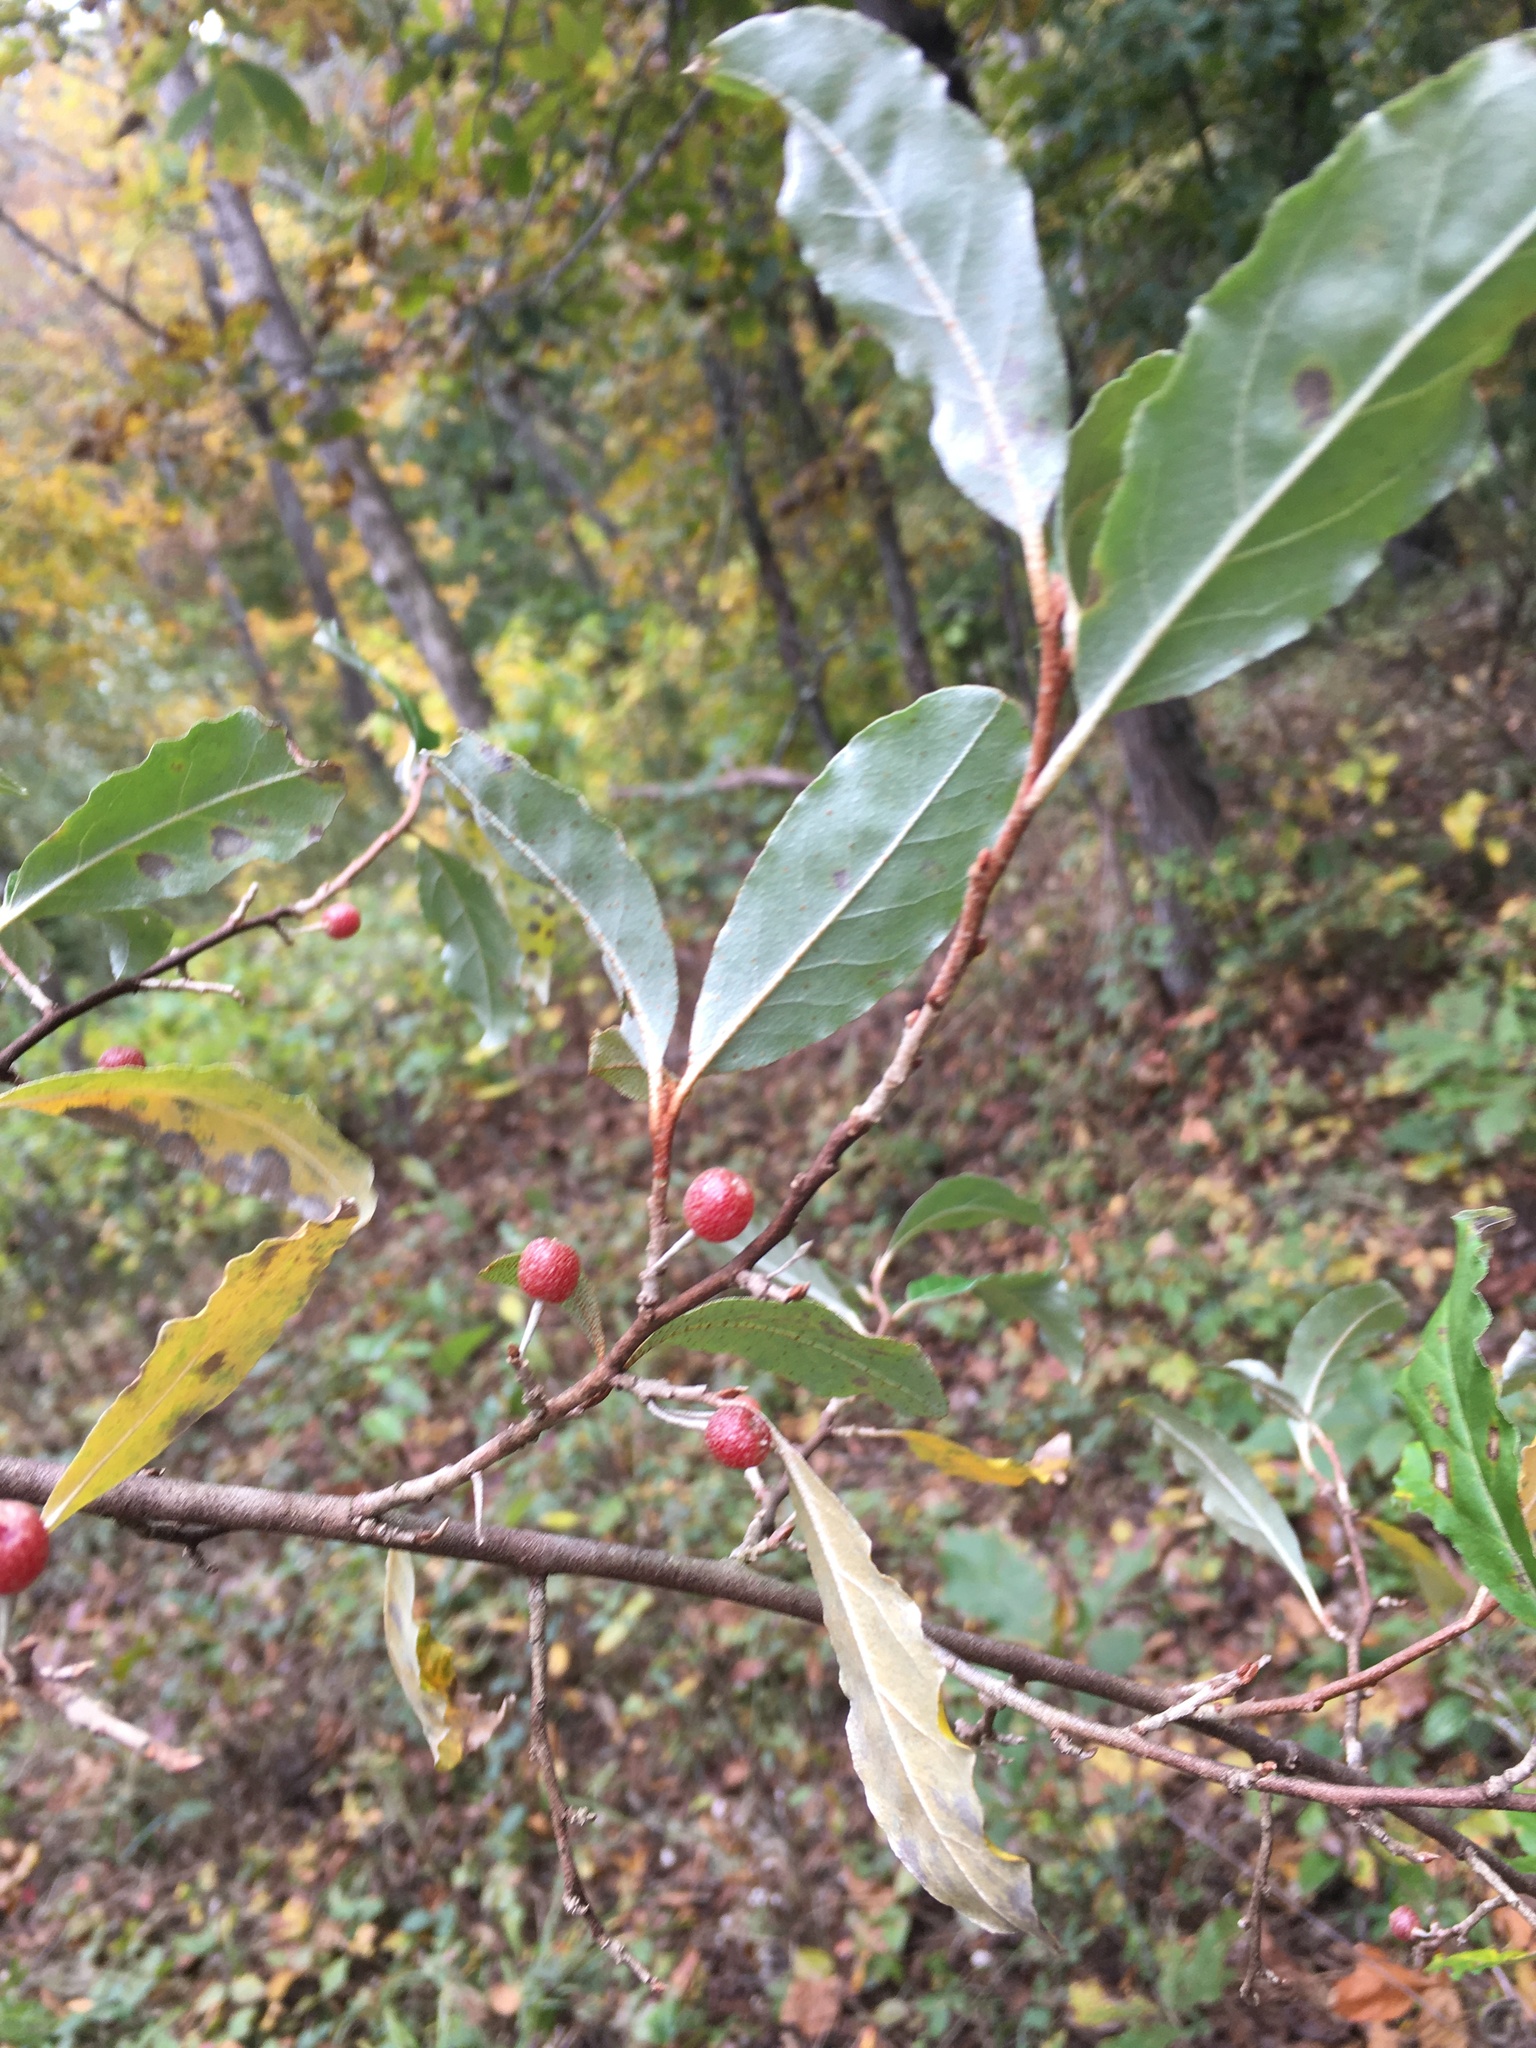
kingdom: Plantae
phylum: Tracheophyta
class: Magnoliopsida
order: Rosales
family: Elaeagnaceae
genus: Elaeagnus
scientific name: Elaeagnus umbellata
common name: Autumn olive
